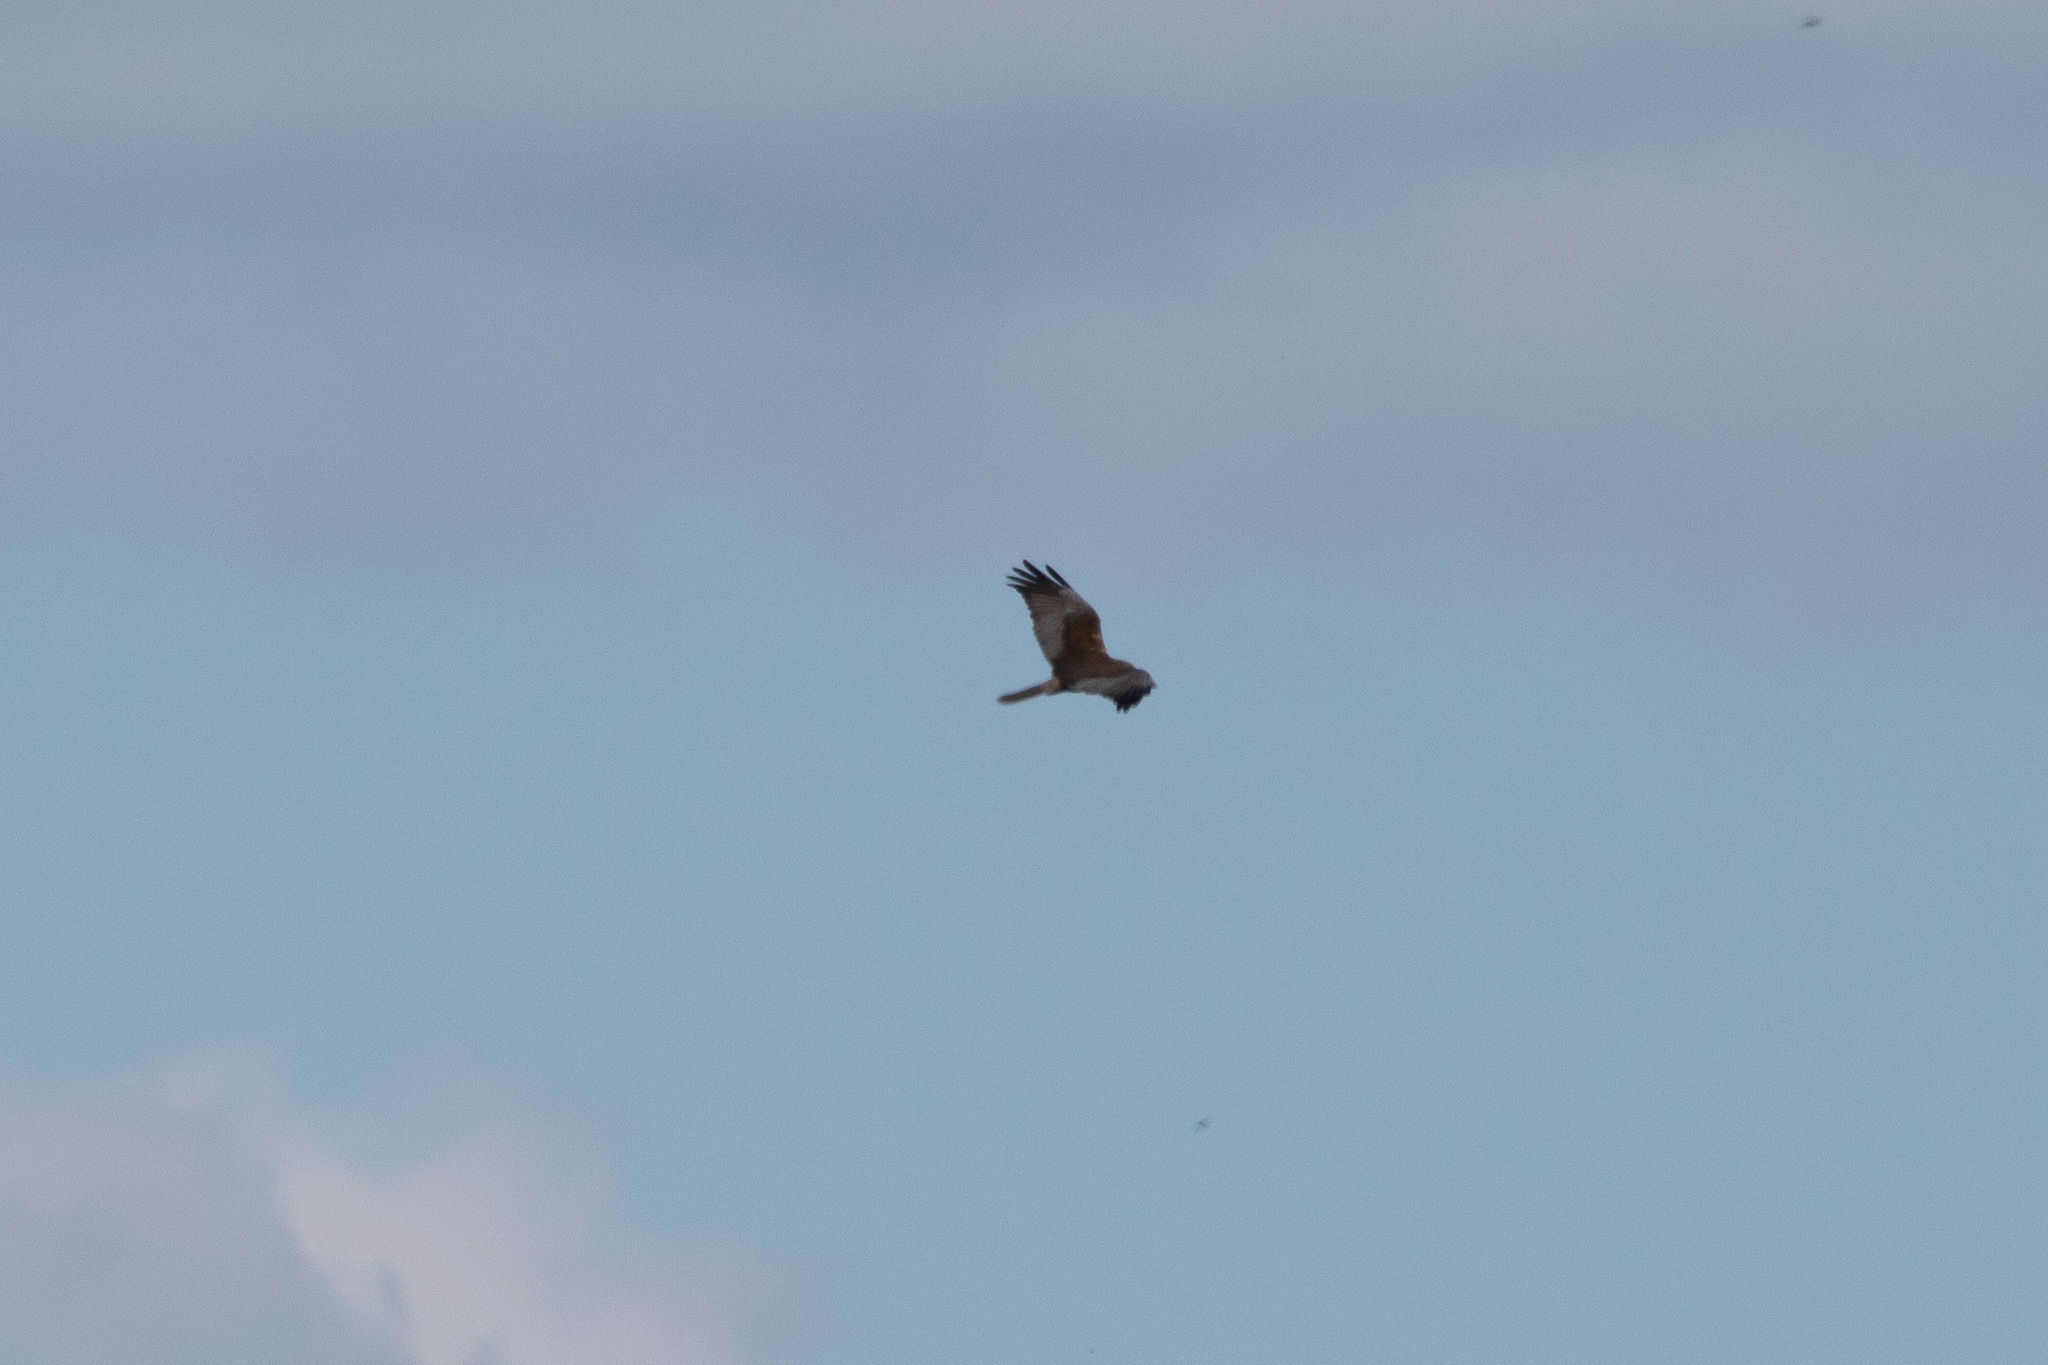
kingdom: Animalia
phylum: Chordata
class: Aves
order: Accipitriformes
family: Accipitridae
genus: Circus
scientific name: Circus aeruginosus
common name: Western marsh harrier
